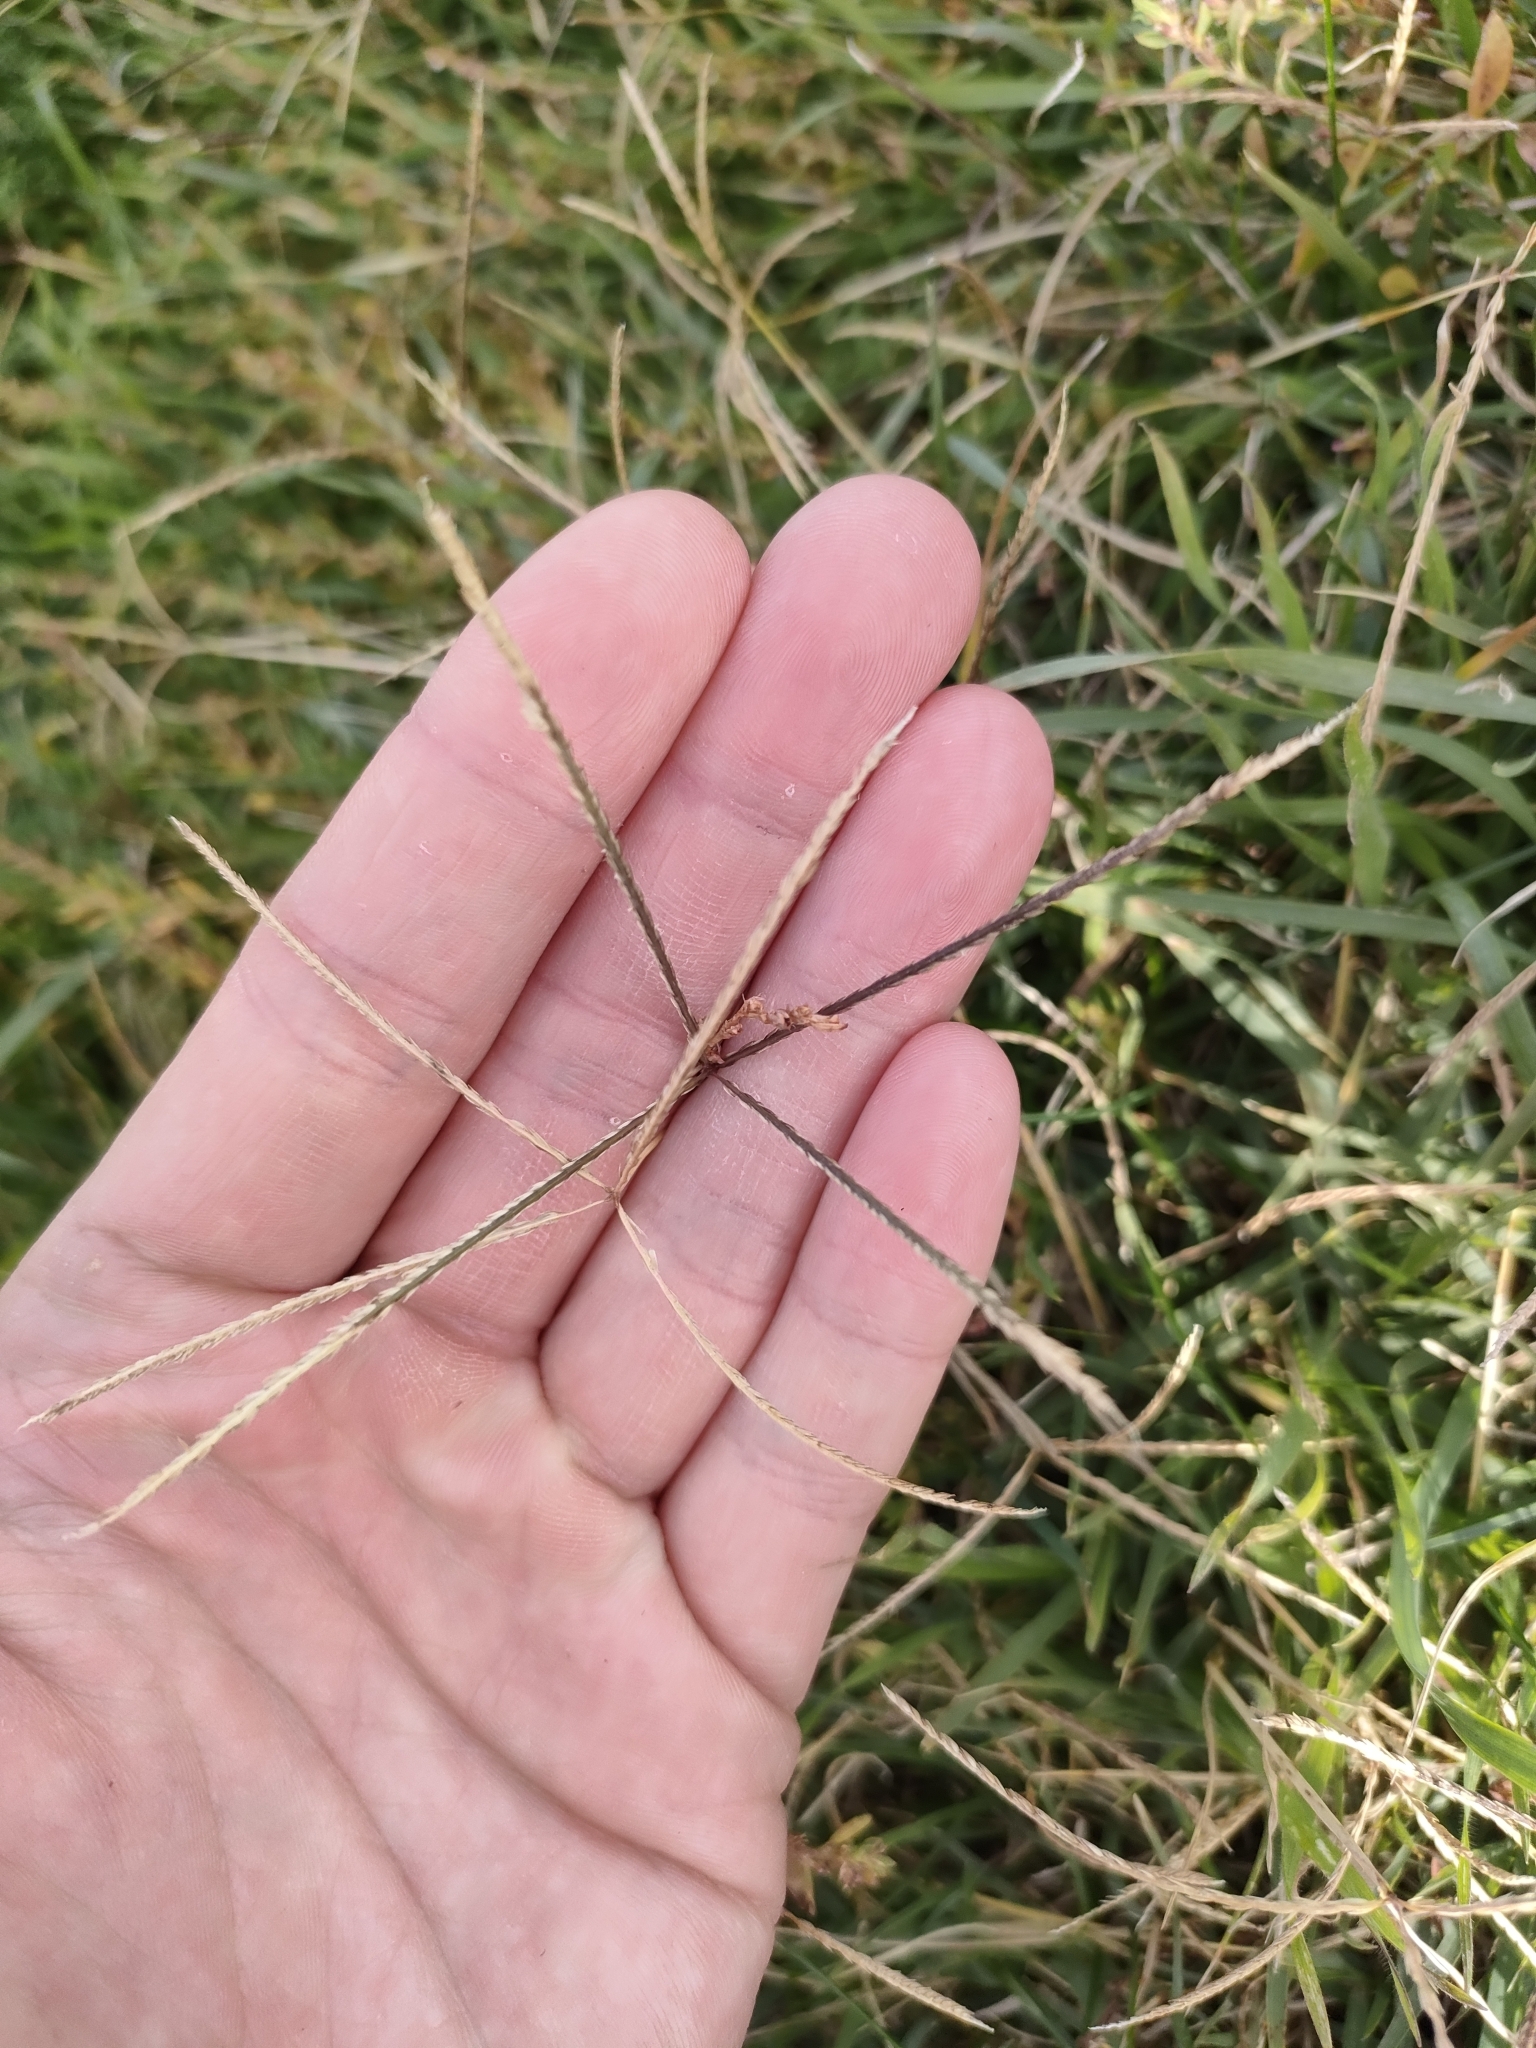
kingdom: Plantae
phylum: Tracheophyta
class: Liliopsida
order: Poales
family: Poaceae
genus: Cynodon
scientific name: Cynodon dactylon
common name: Bermuda grass
